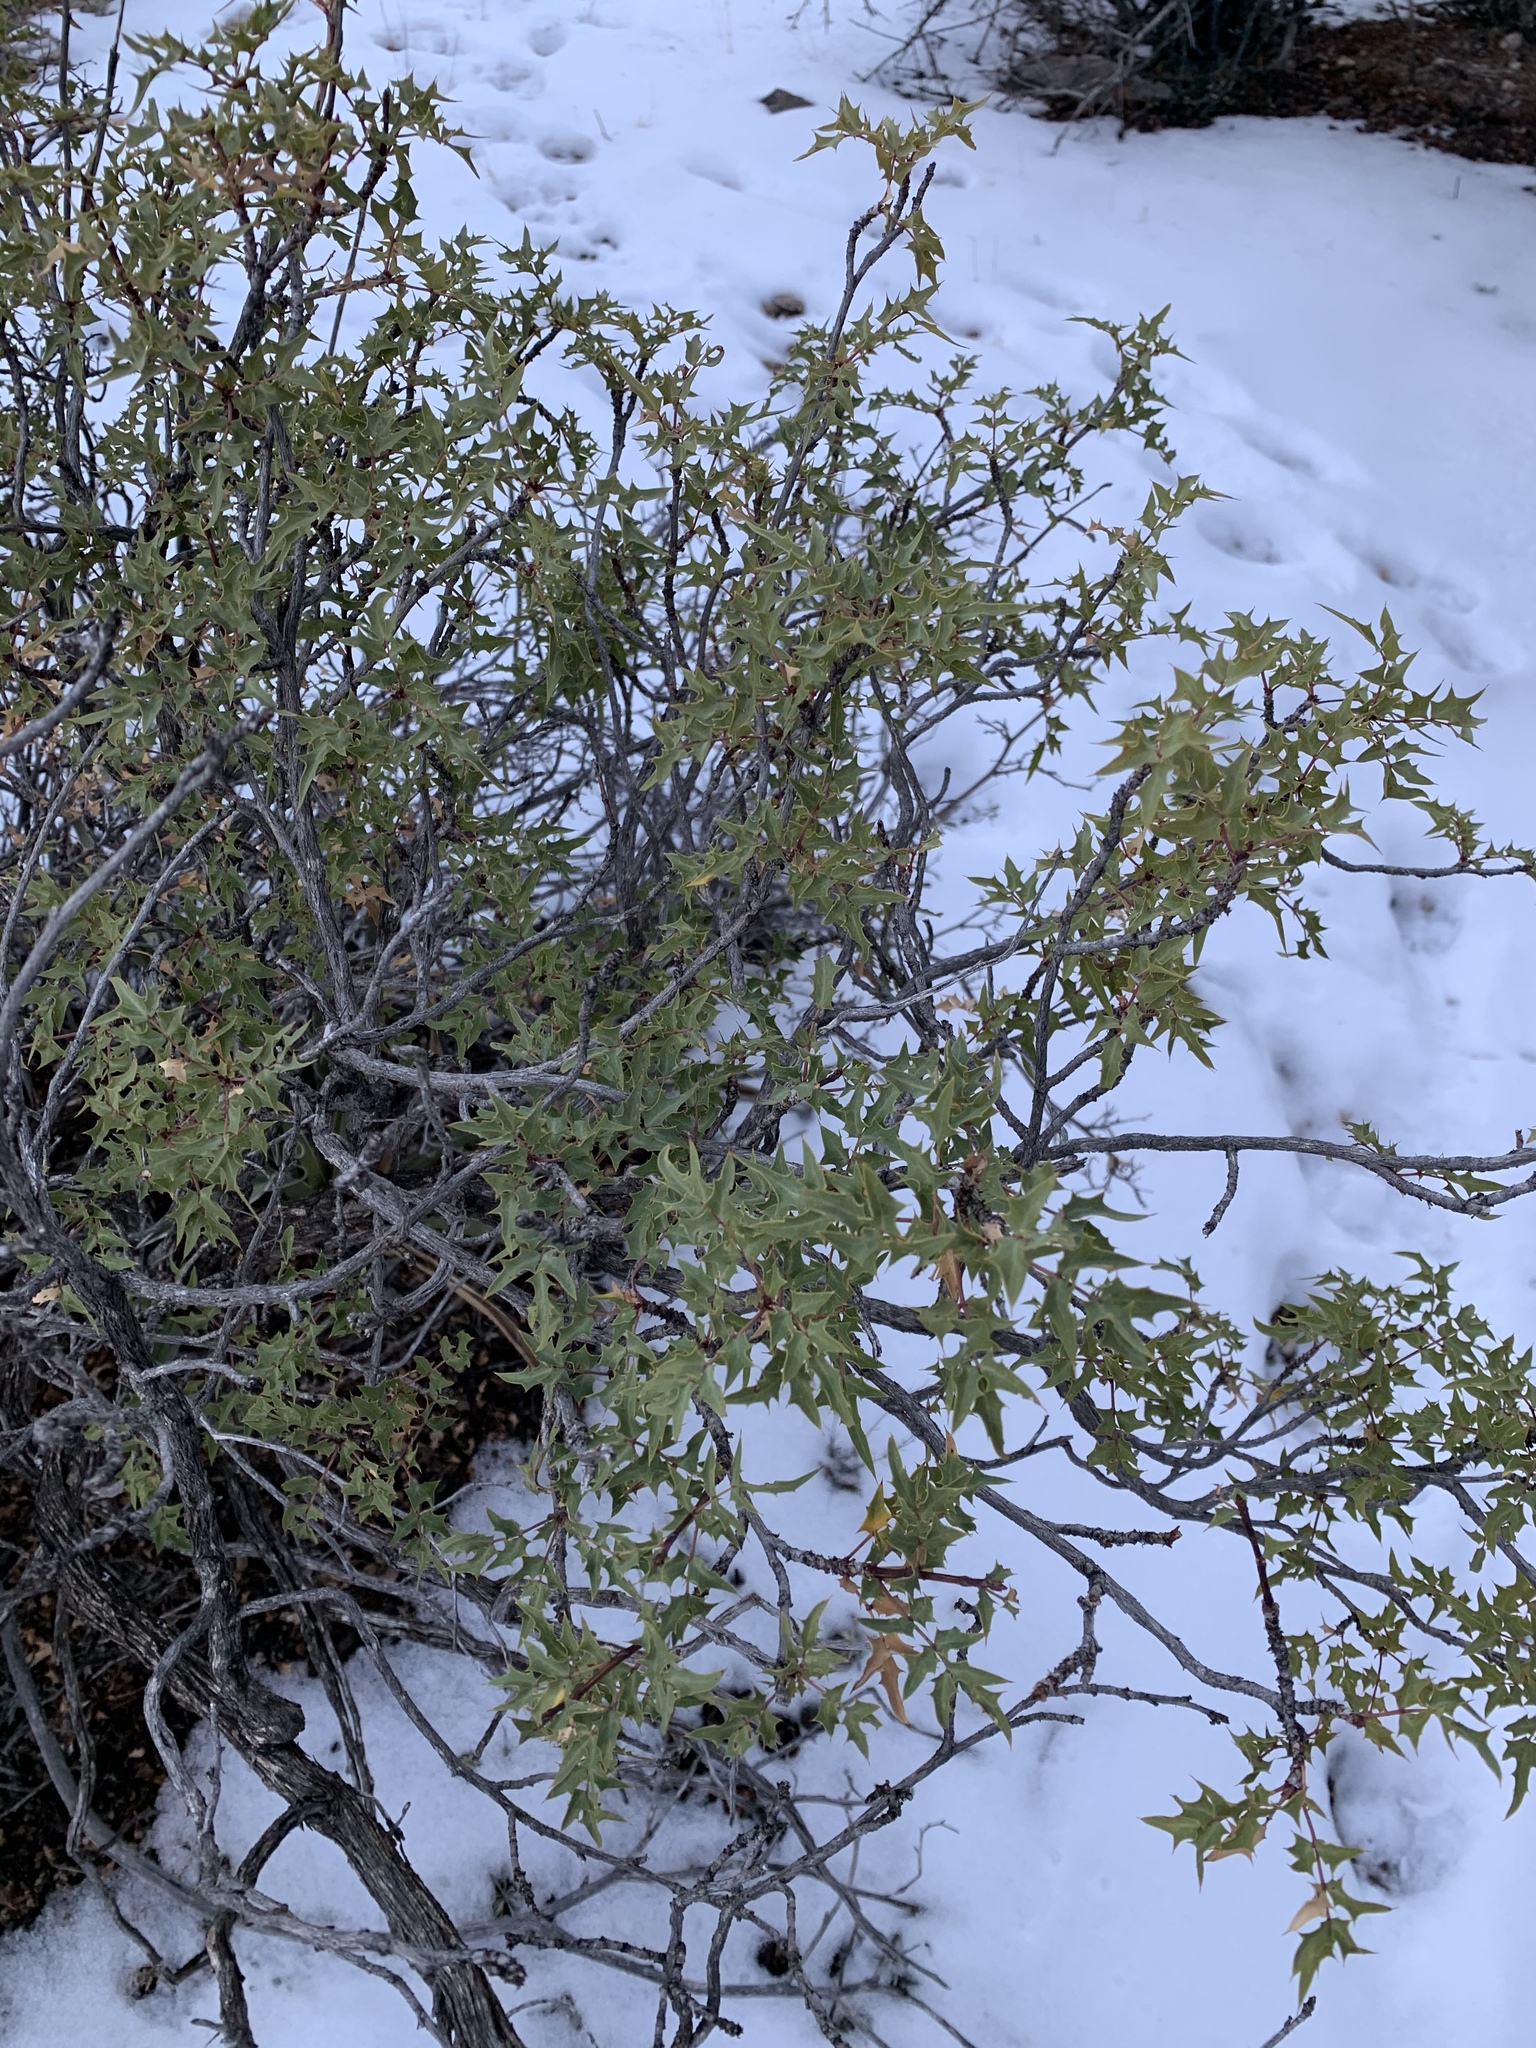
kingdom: Plantae
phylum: Tracheophyta
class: Magnoliopsida
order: Ranunculales
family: Berberidaceae
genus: Alloberberis
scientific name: Alloberberis haematocarpa
